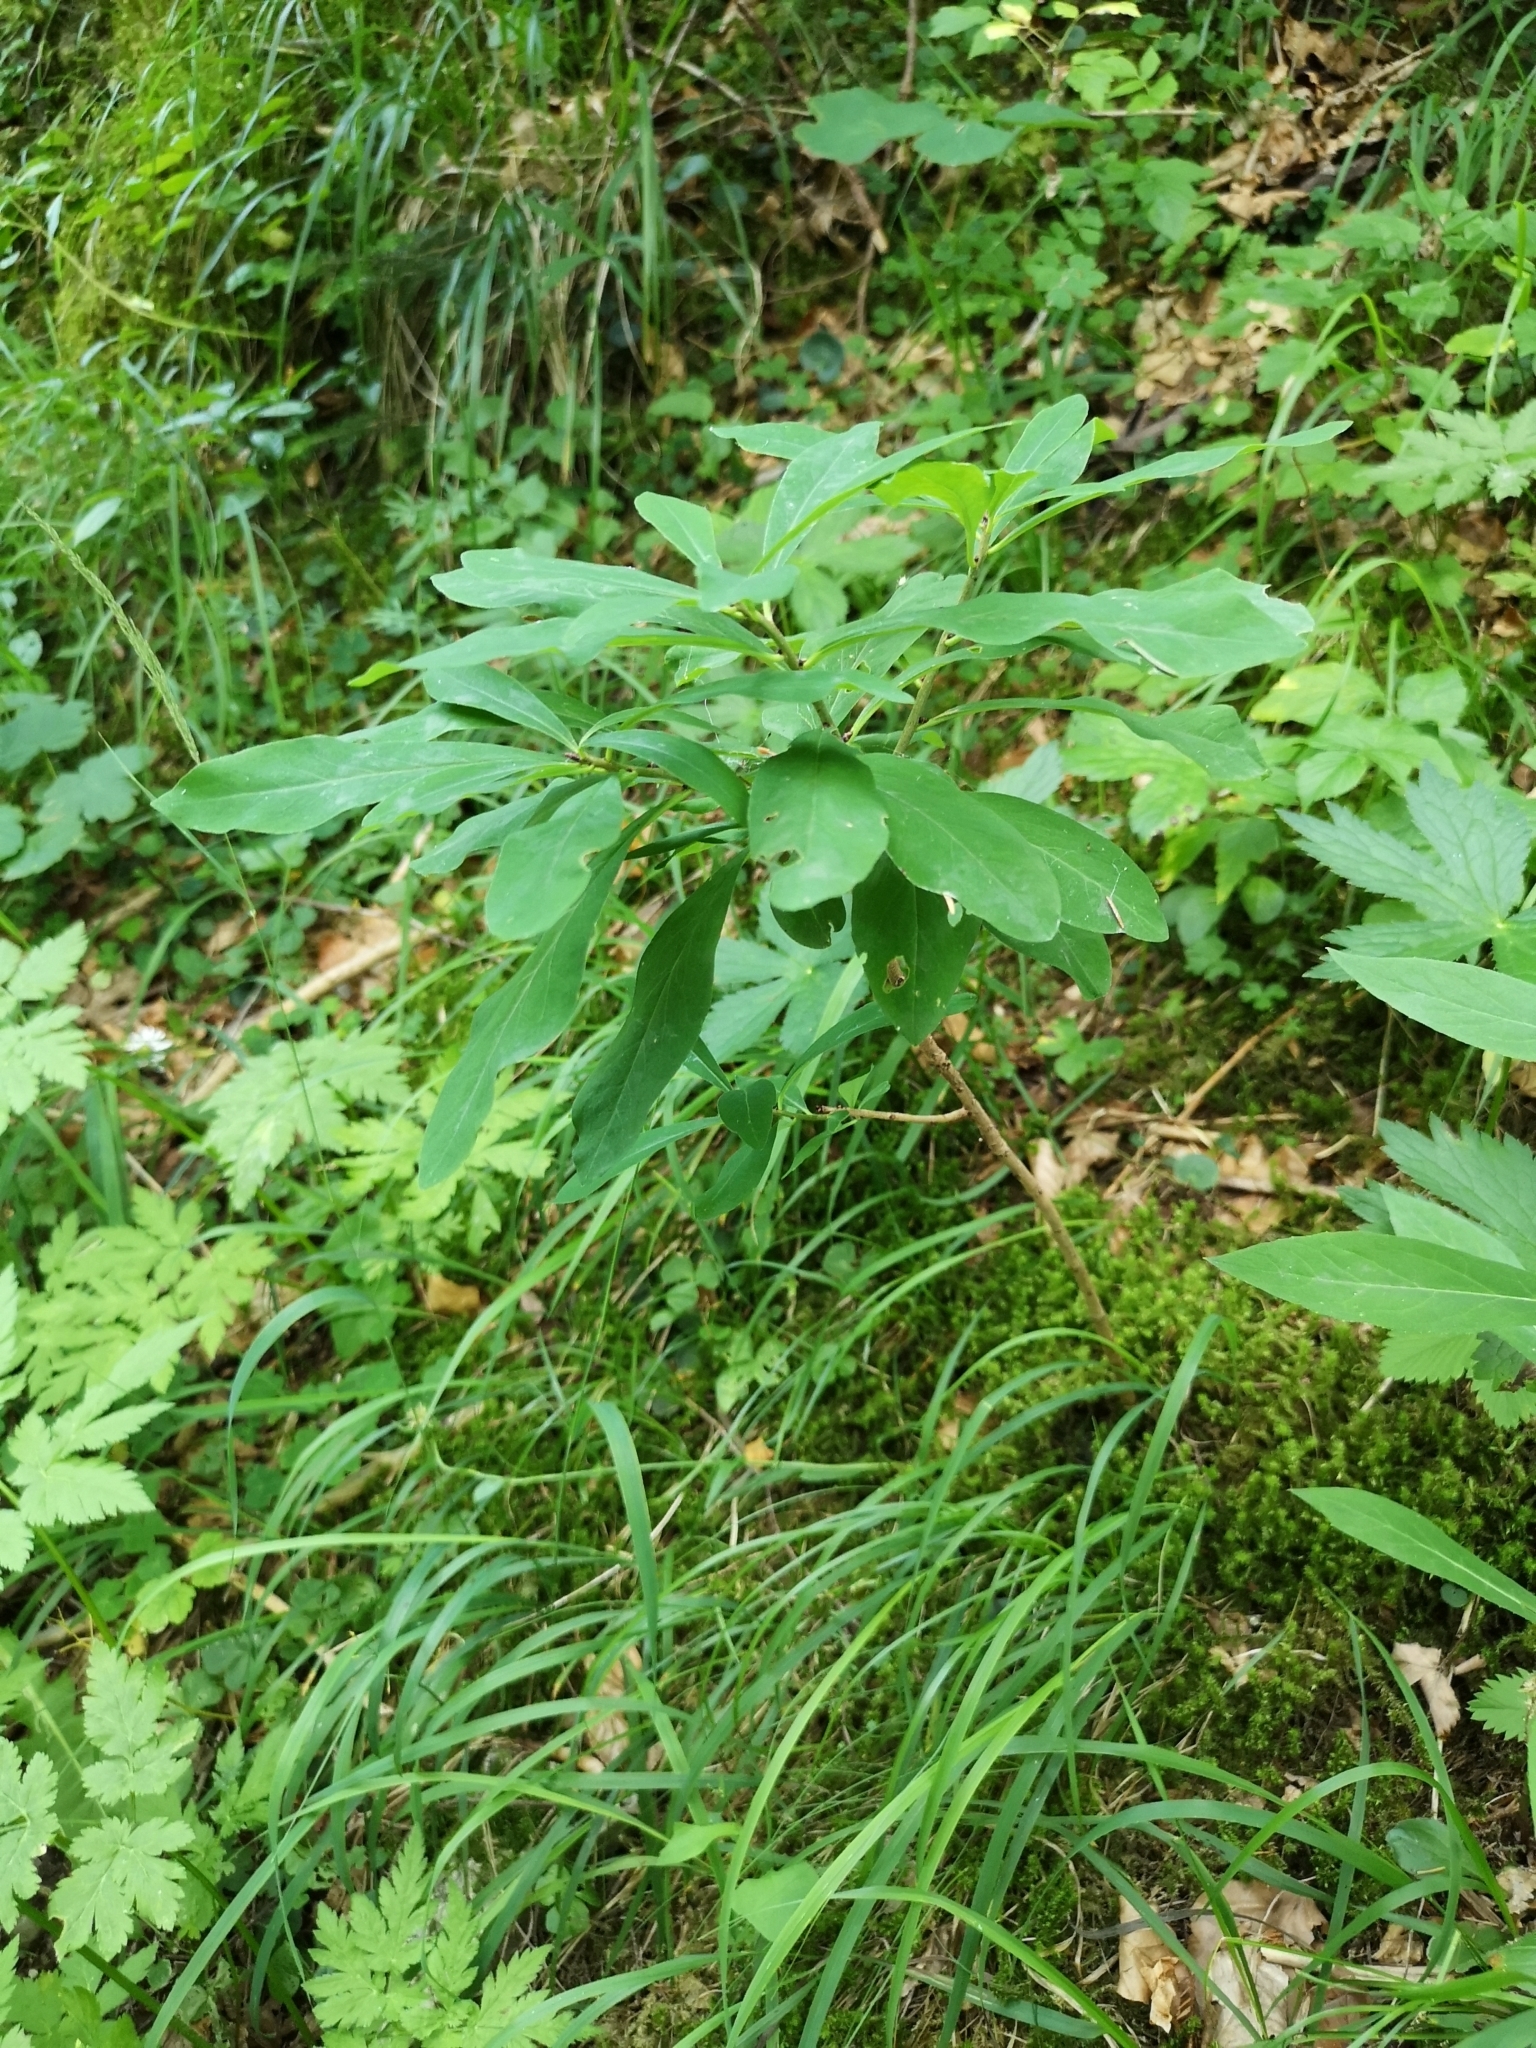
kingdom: Plantae
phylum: Tracheophyta
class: Magnoliopsida
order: Malvales
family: Thymelaeaceae
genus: Daphne
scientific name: Daphne mezereum
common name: Mezereon
